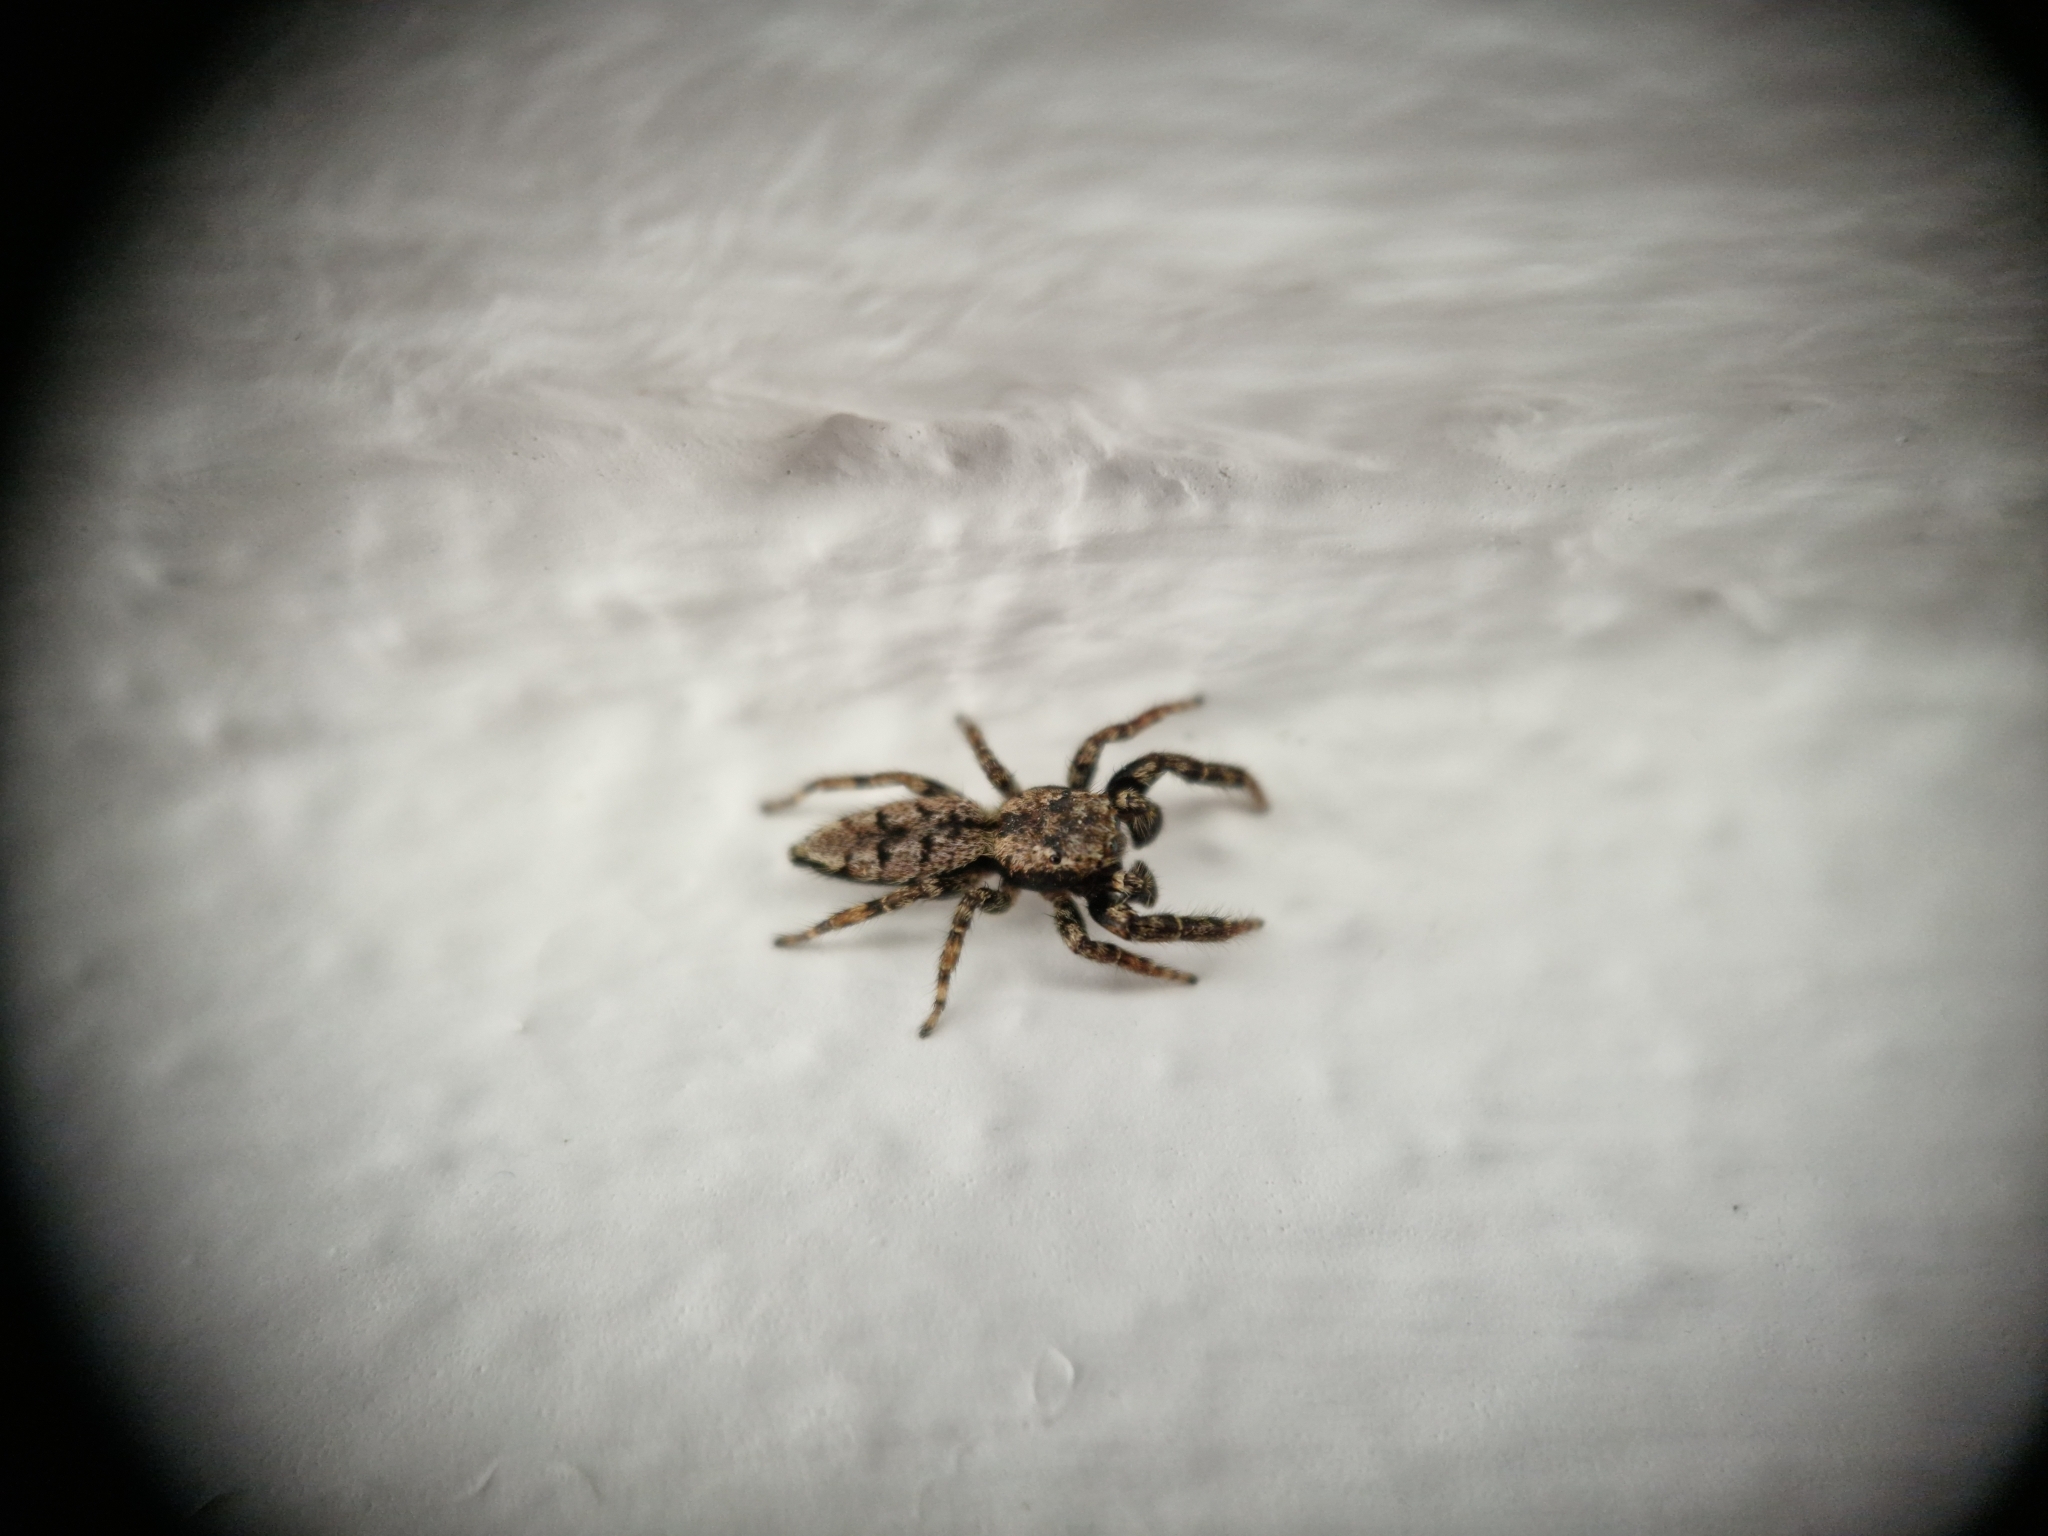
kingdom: Animalia
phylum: Arthropoda
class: Arachnida
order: Araneae
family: Salticidae
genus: Marpissa
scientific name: Marpissa muscosa
